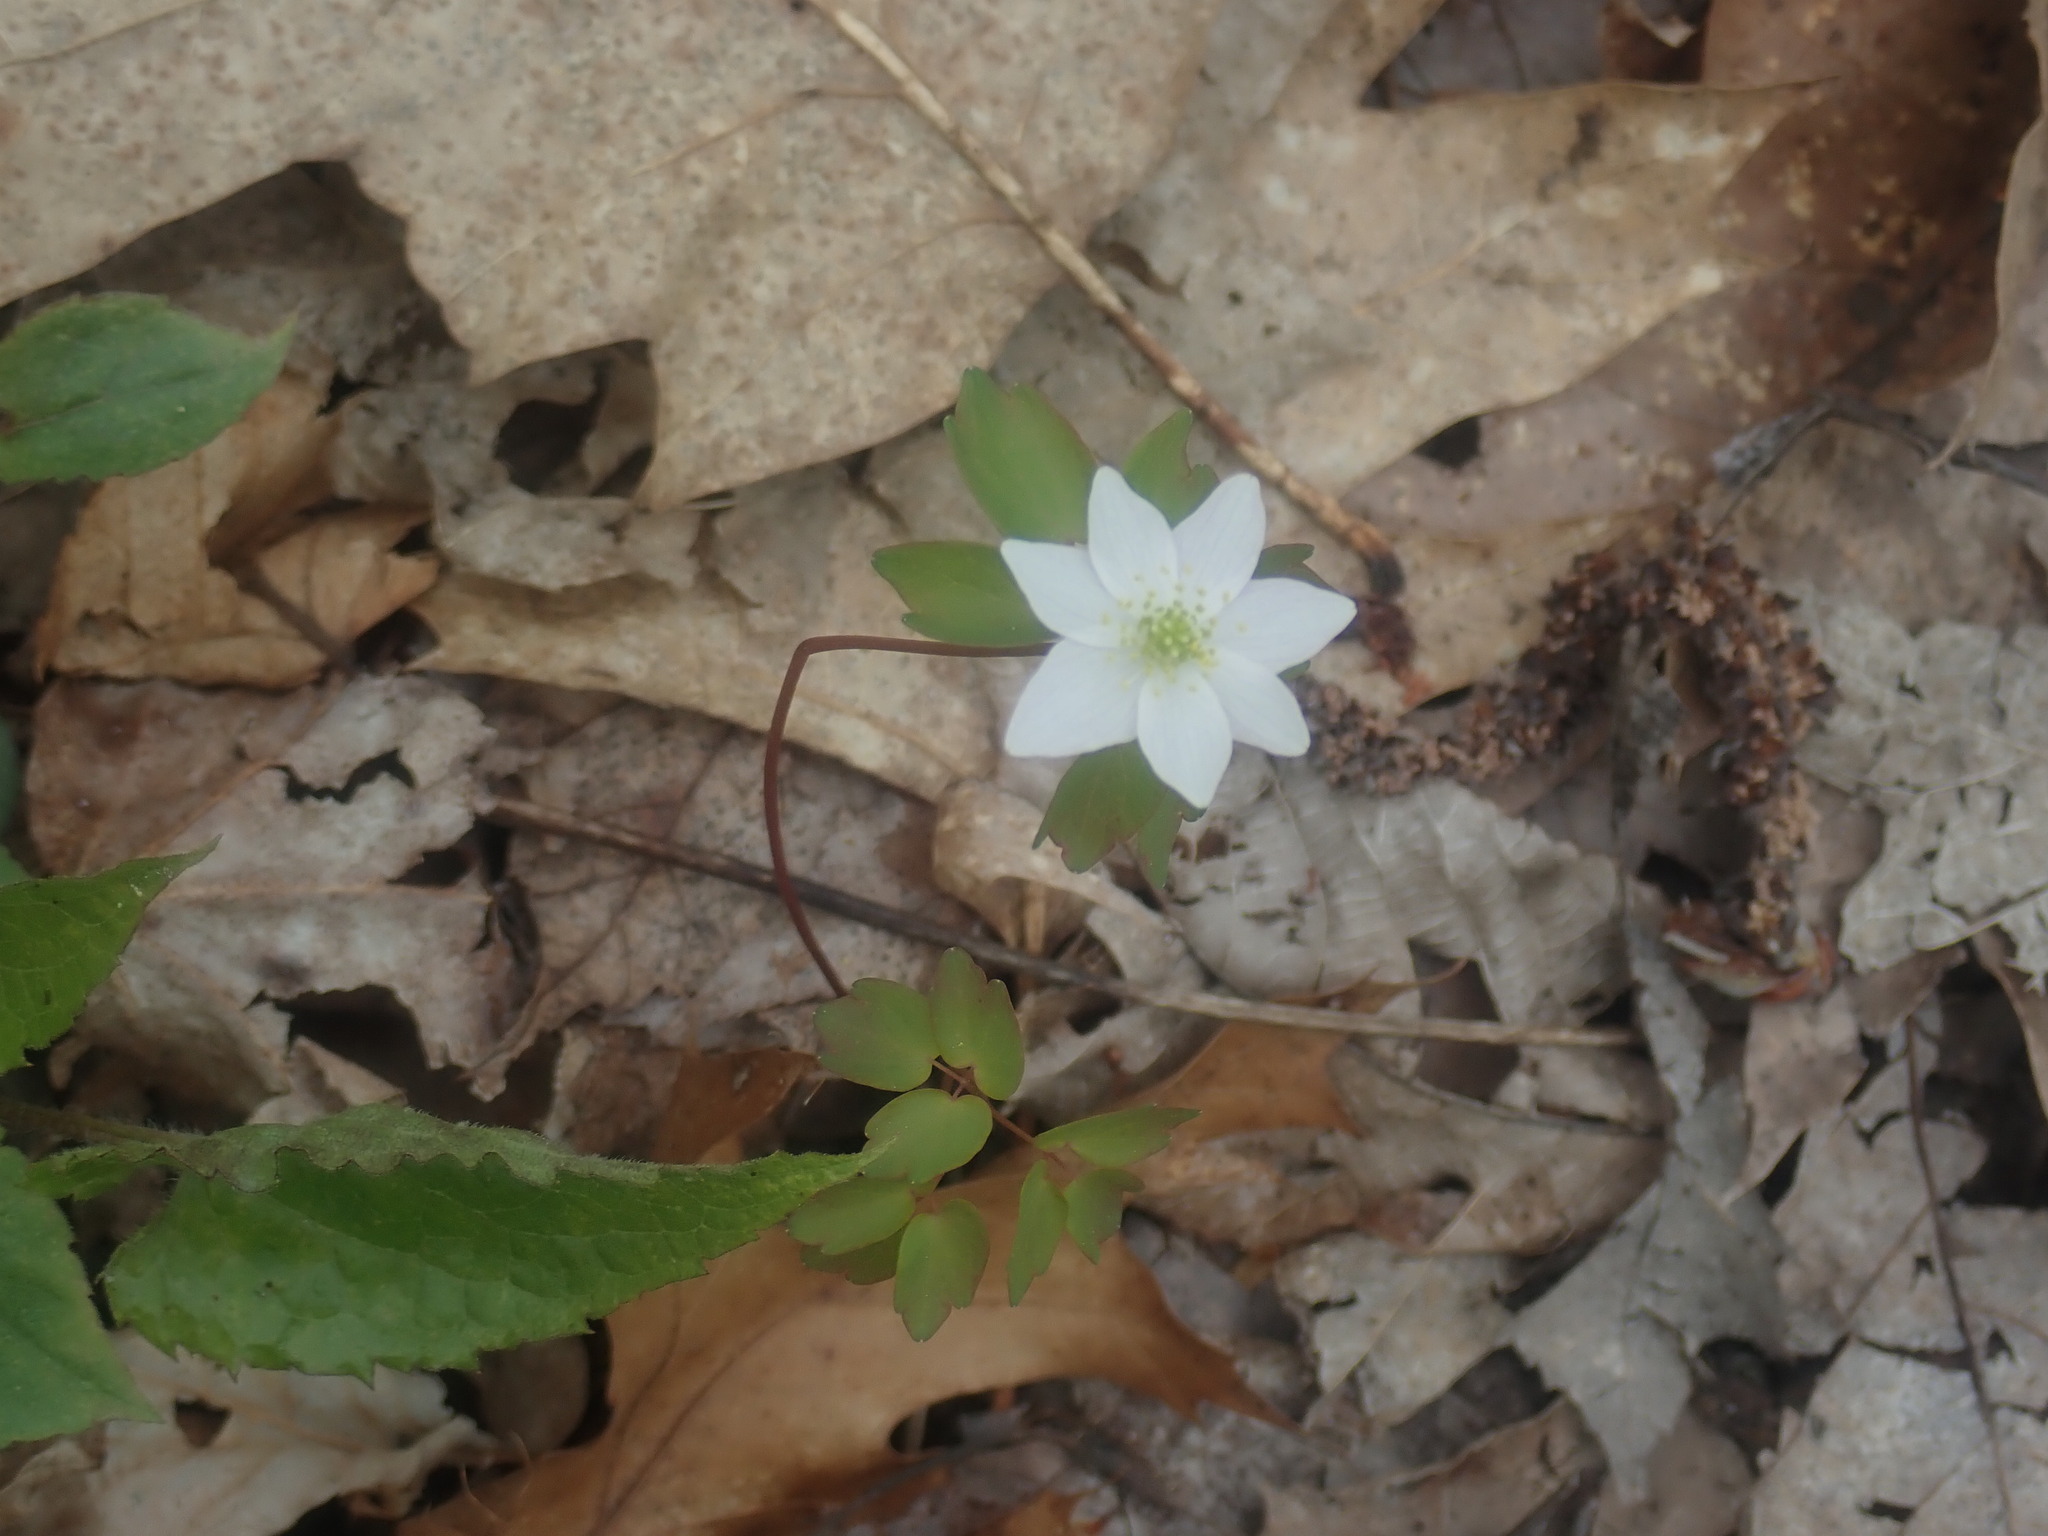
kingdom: Plantae
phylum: Tracheophyta
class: Magnoliopsida
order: Ranunculales
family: Ranunculaceae
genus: Thalictrum
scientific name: Thalictrum thalictroides
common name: Rue-anemone
